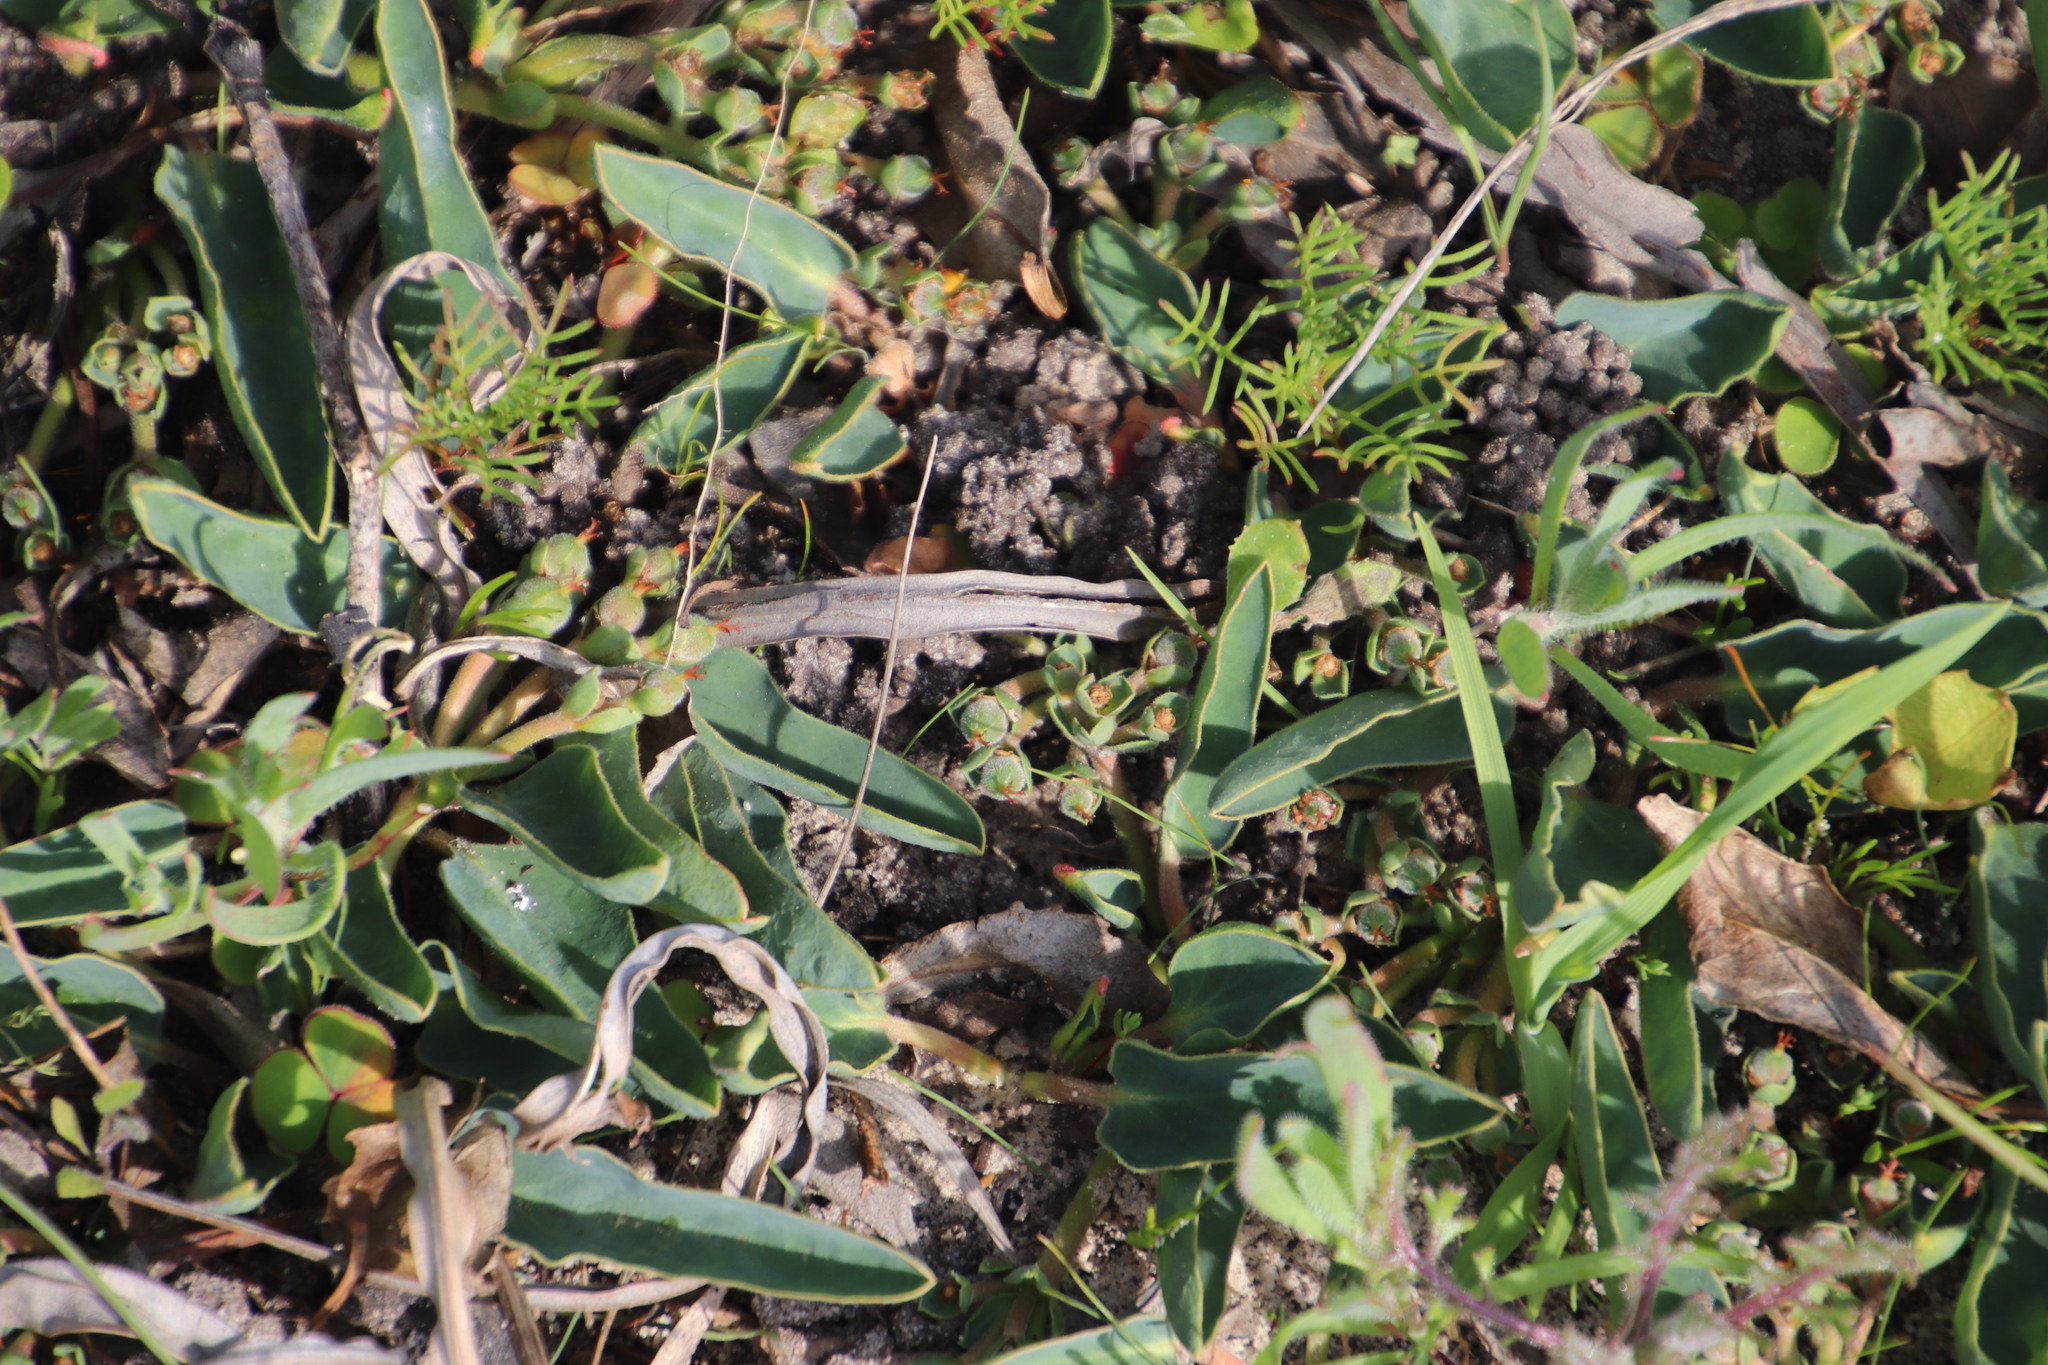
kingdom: Plantae
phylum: Tracheophyta
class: Magnoliopsida
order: Malpighiales
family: Euphorbiaceae
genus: Euphorbia
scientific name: Euphorbia tuberosa
